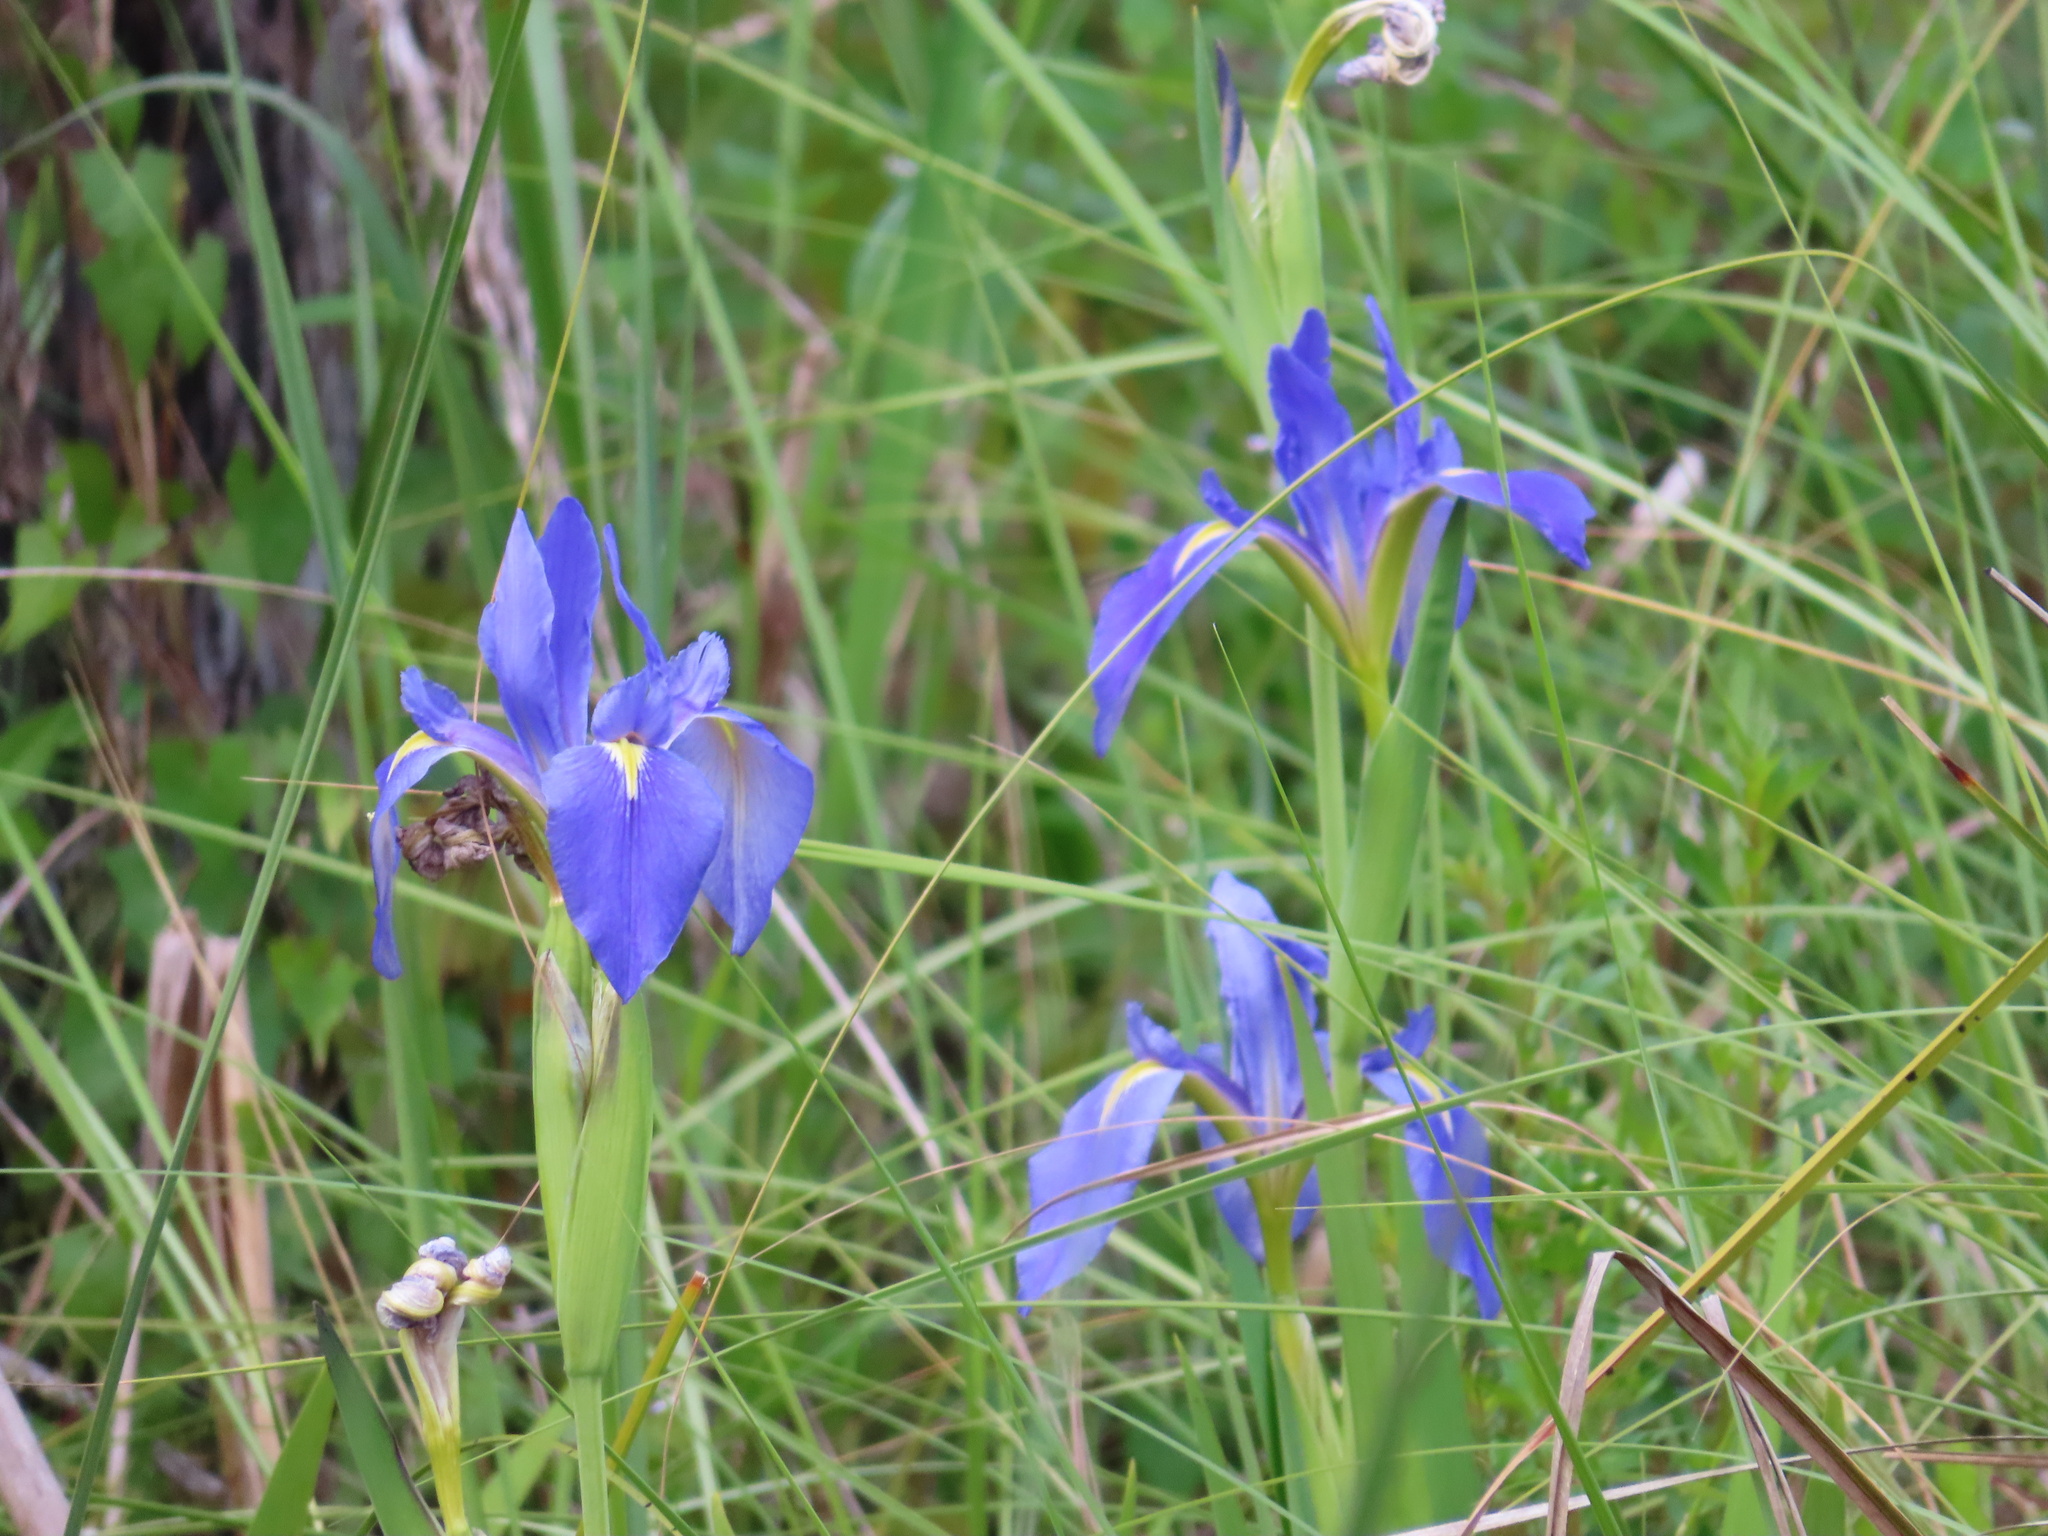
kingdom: Plantae
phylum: Tracheophyta
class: Liliopsida
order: Asparagales
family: Iridaceae
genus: Iris
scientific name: Iris savannarum
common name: Prairie iris
